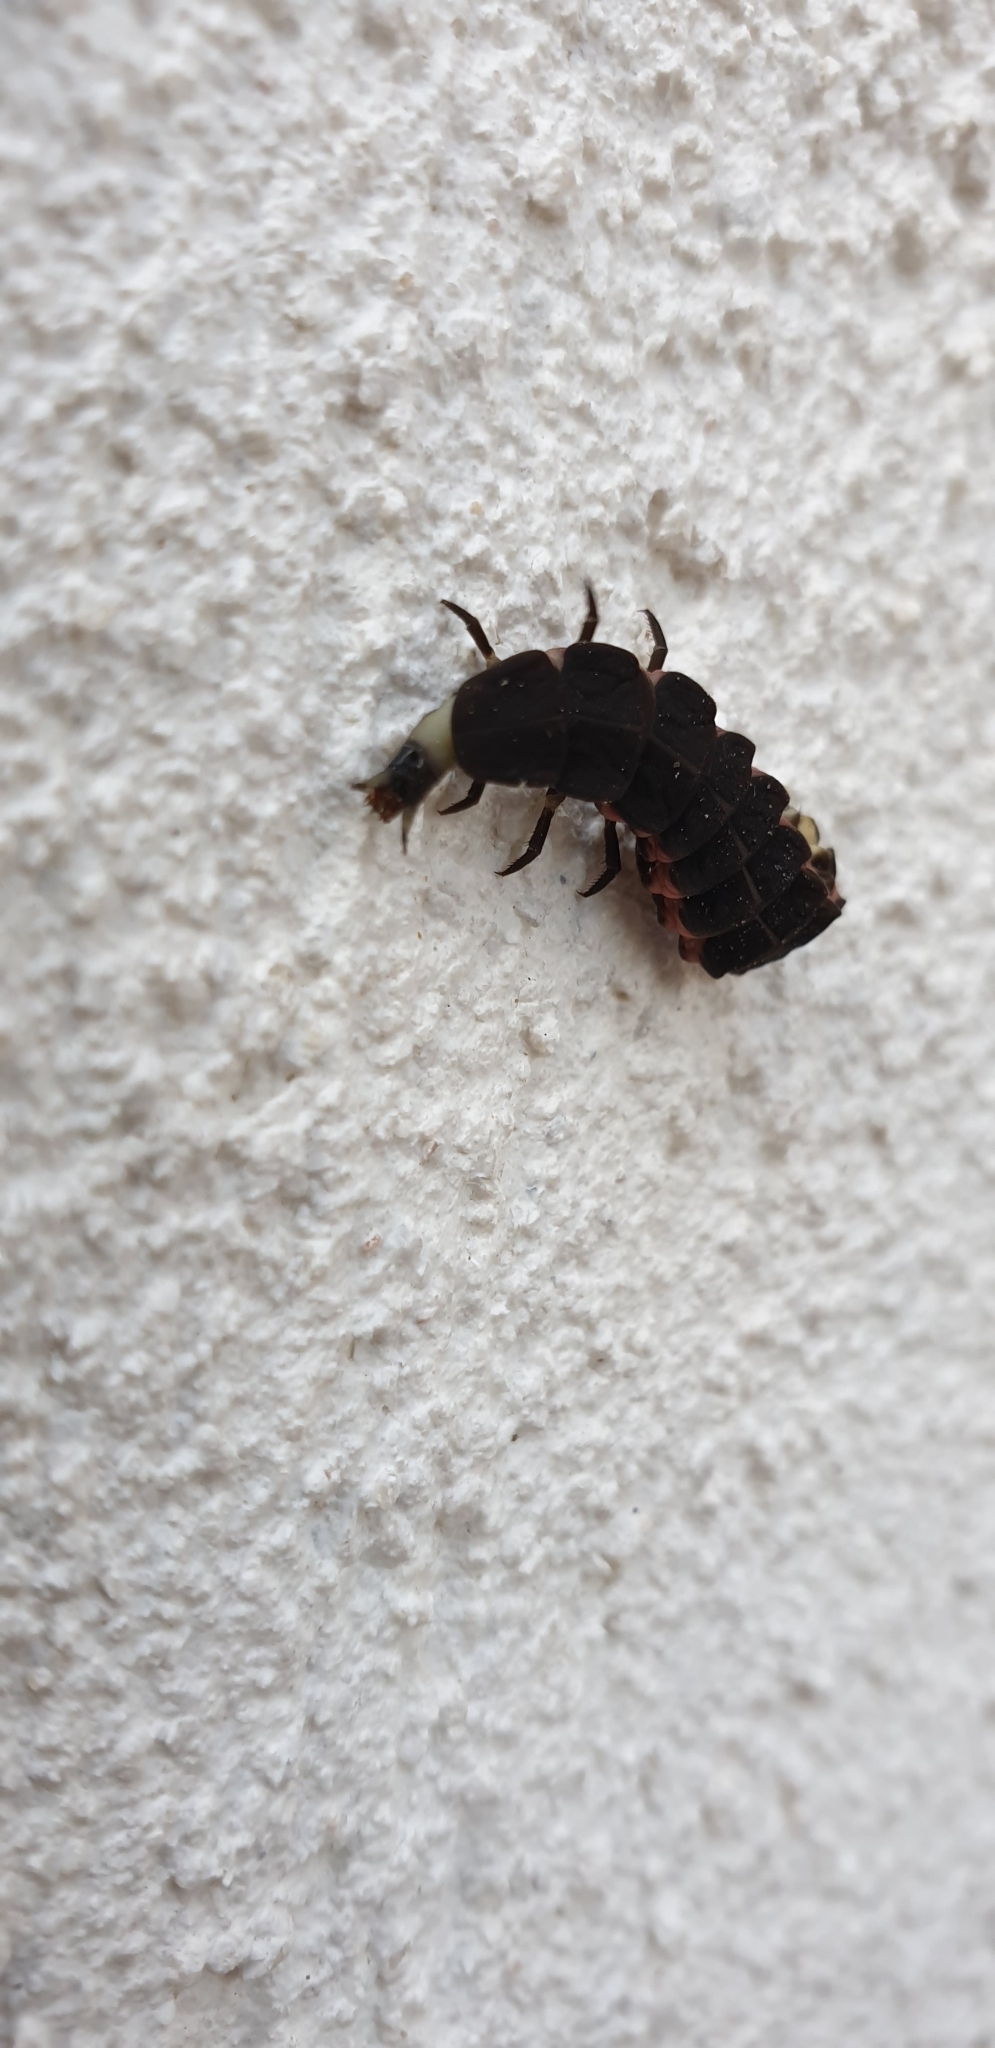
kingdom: Animalia
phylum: Arthropoda
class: Insecta
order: Coleoptera
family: Lampyridae
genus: Nyctophila
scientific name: Nyctophila reichii
